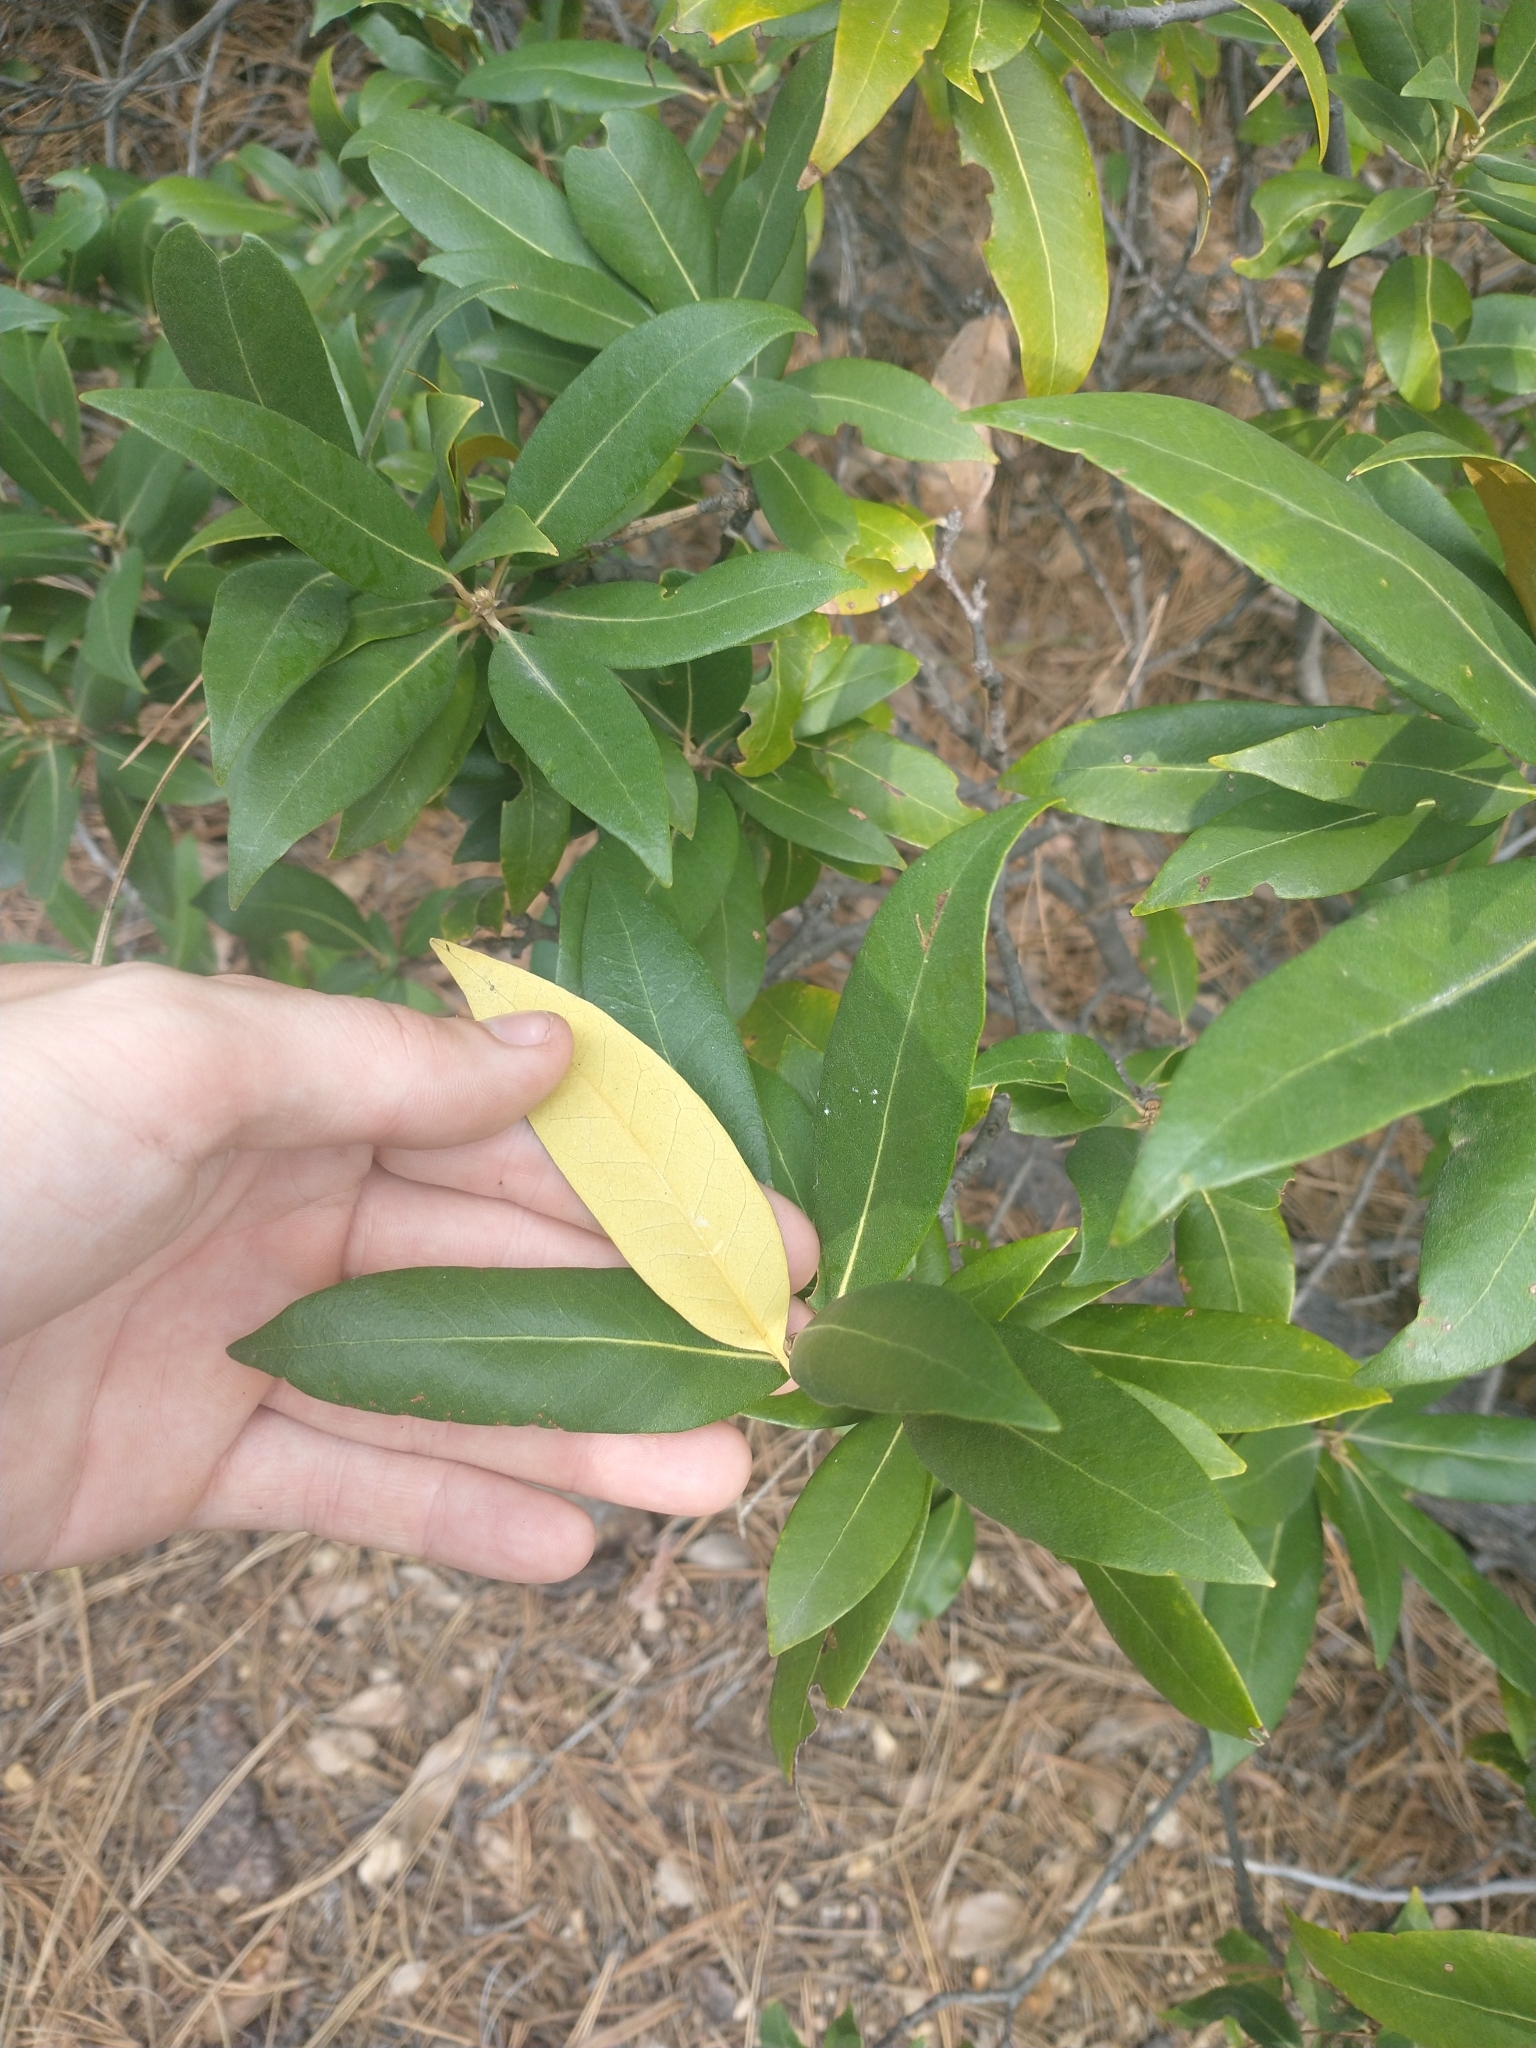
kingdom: Plantae
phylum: Tracheophyta
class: Magnoliopsida
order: Fagales
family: Fagaceae
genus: Chrysolepis
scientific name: Chrysolepis chrysophylla
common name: Giant chinquapin
